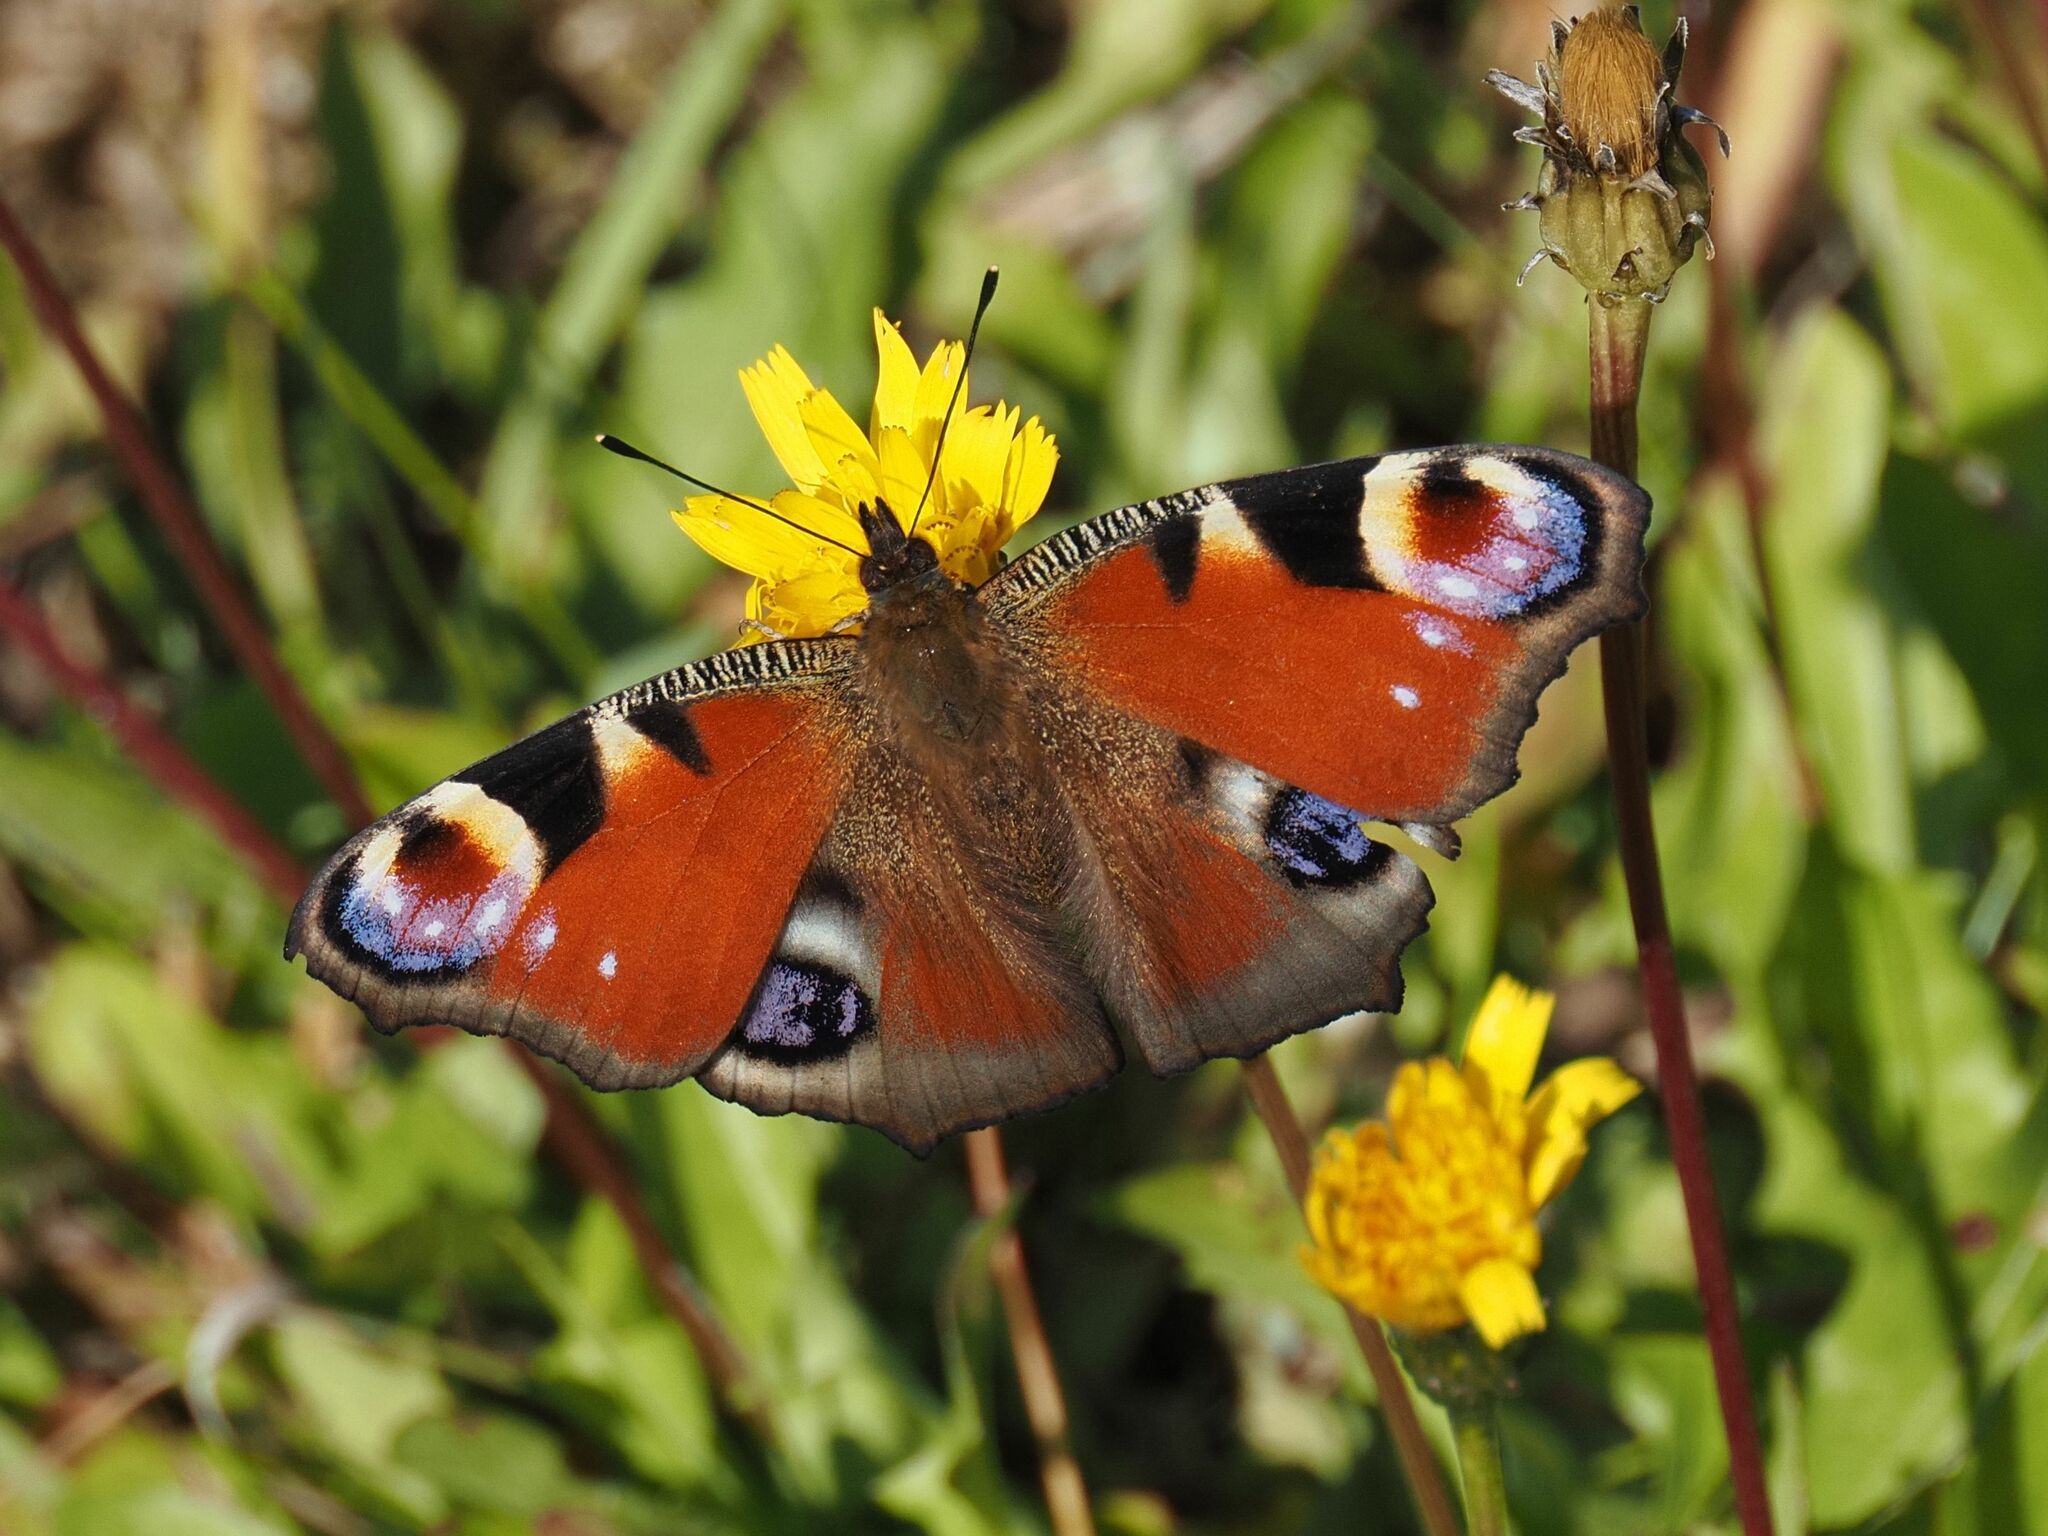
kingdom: Animalia
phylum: Arthropoda
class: Insecta
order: Lepidoptera
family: Nymphalidae
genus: Aglais
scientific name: Aglais io
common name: Peacock
